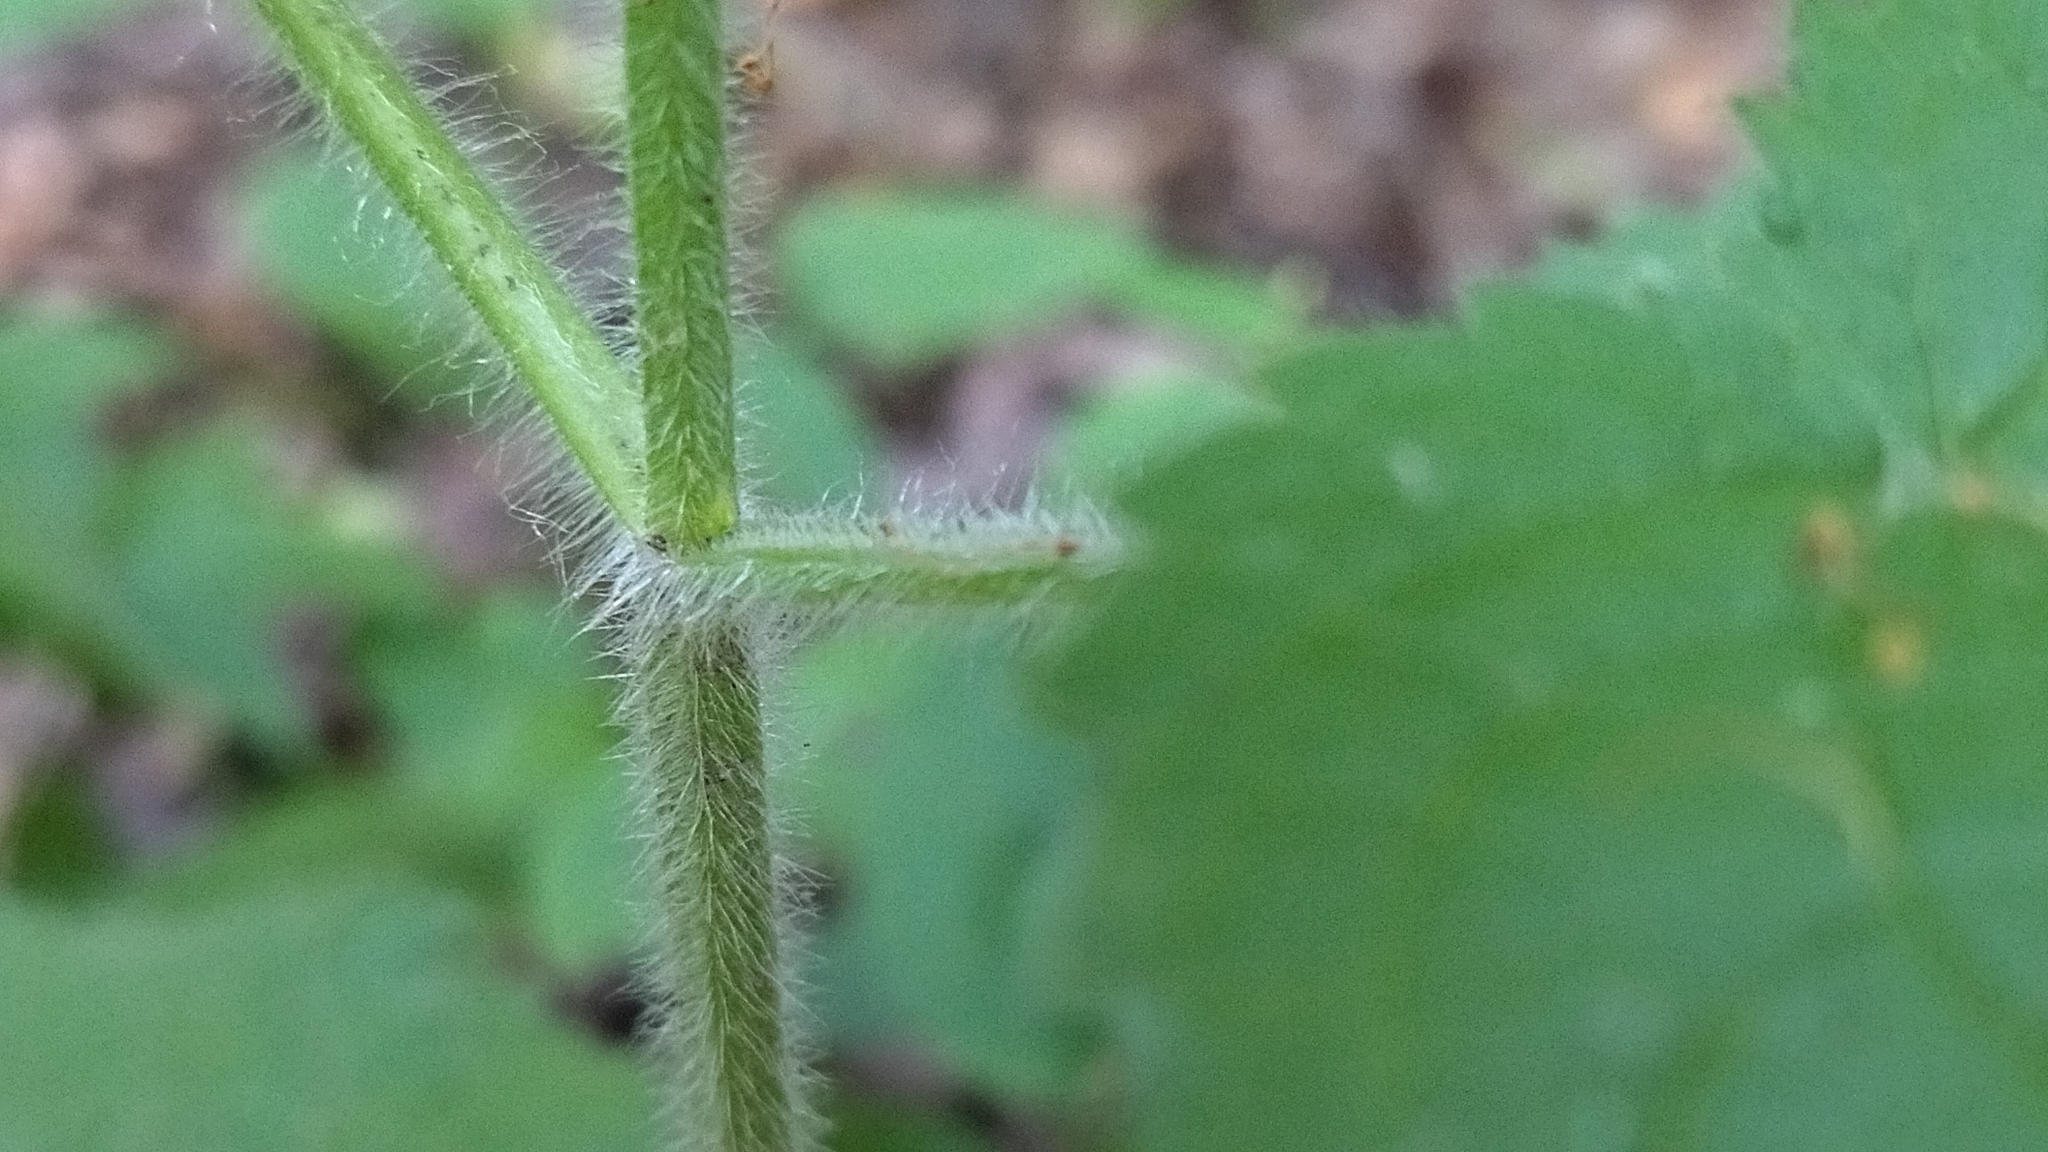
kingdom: Plantae
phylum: Tracheophyta
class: Magnoliopsida
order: Lamiales
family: Lamiaceae
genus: Stachys
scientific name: Stachys sylvatica
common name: Hedge woundwort
